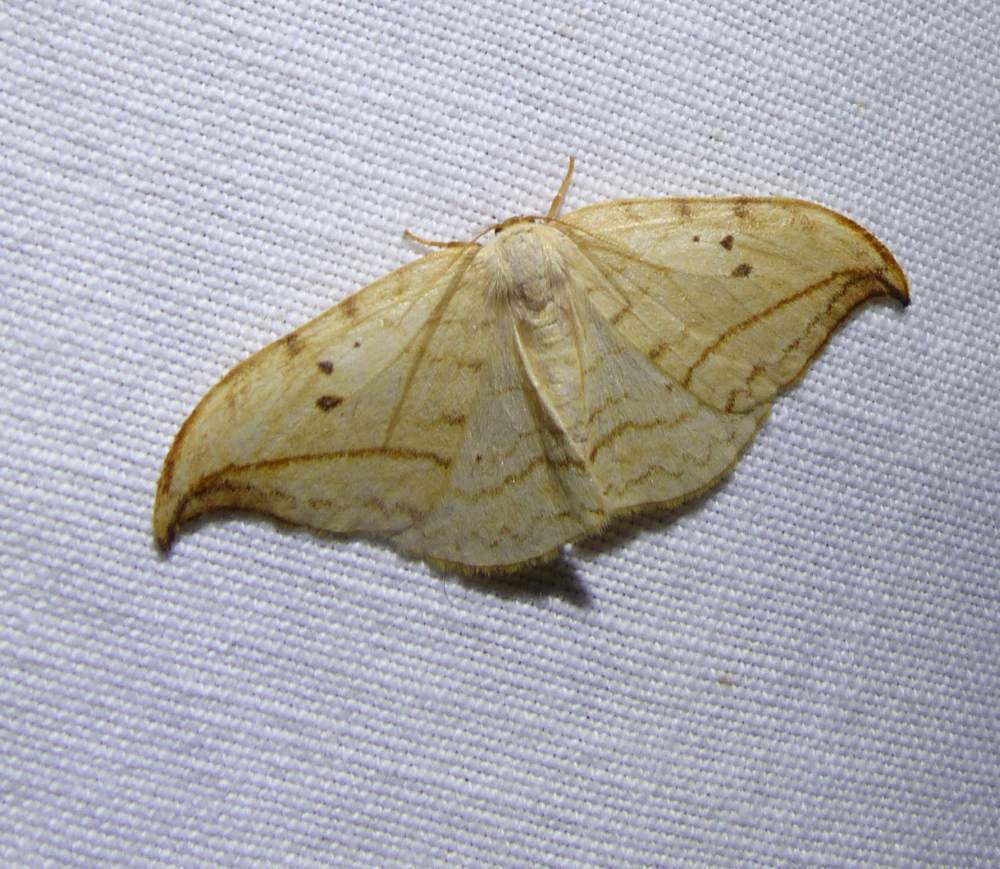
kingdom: Animalia
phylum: Arthropoda
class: Insecta
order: Lepidoptera
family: Drepanidae
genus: Drepana
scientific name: Drepana arcuata
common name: Arched hooktip moth
